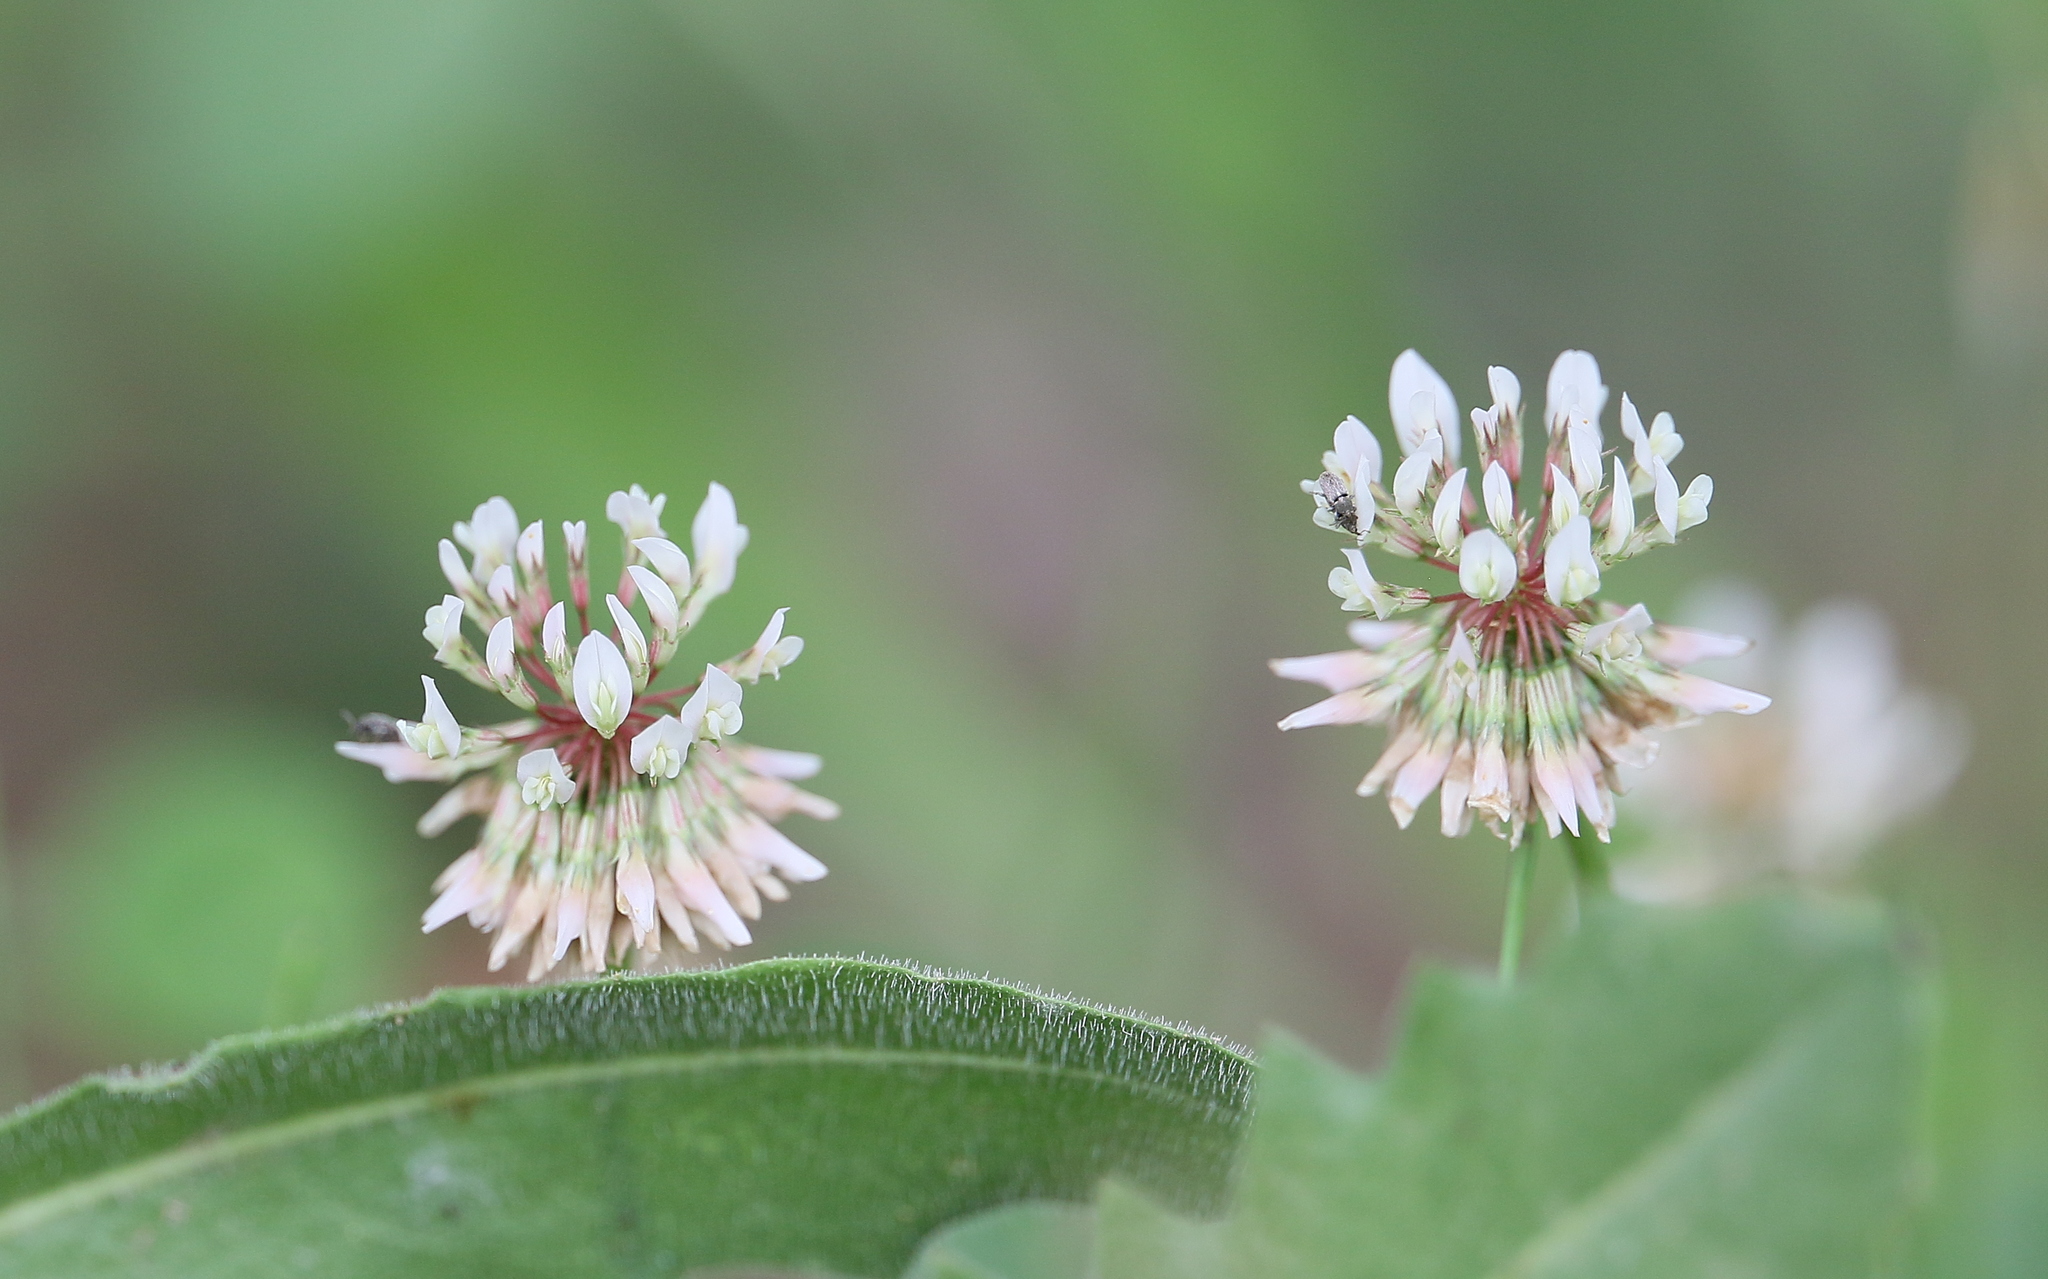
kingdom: Plantae
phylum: Tracheophyta
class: Magnoliopsida
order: Fabales
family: Fabaceae
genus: Trifolium
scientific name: Trifolium repens
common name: White clover
